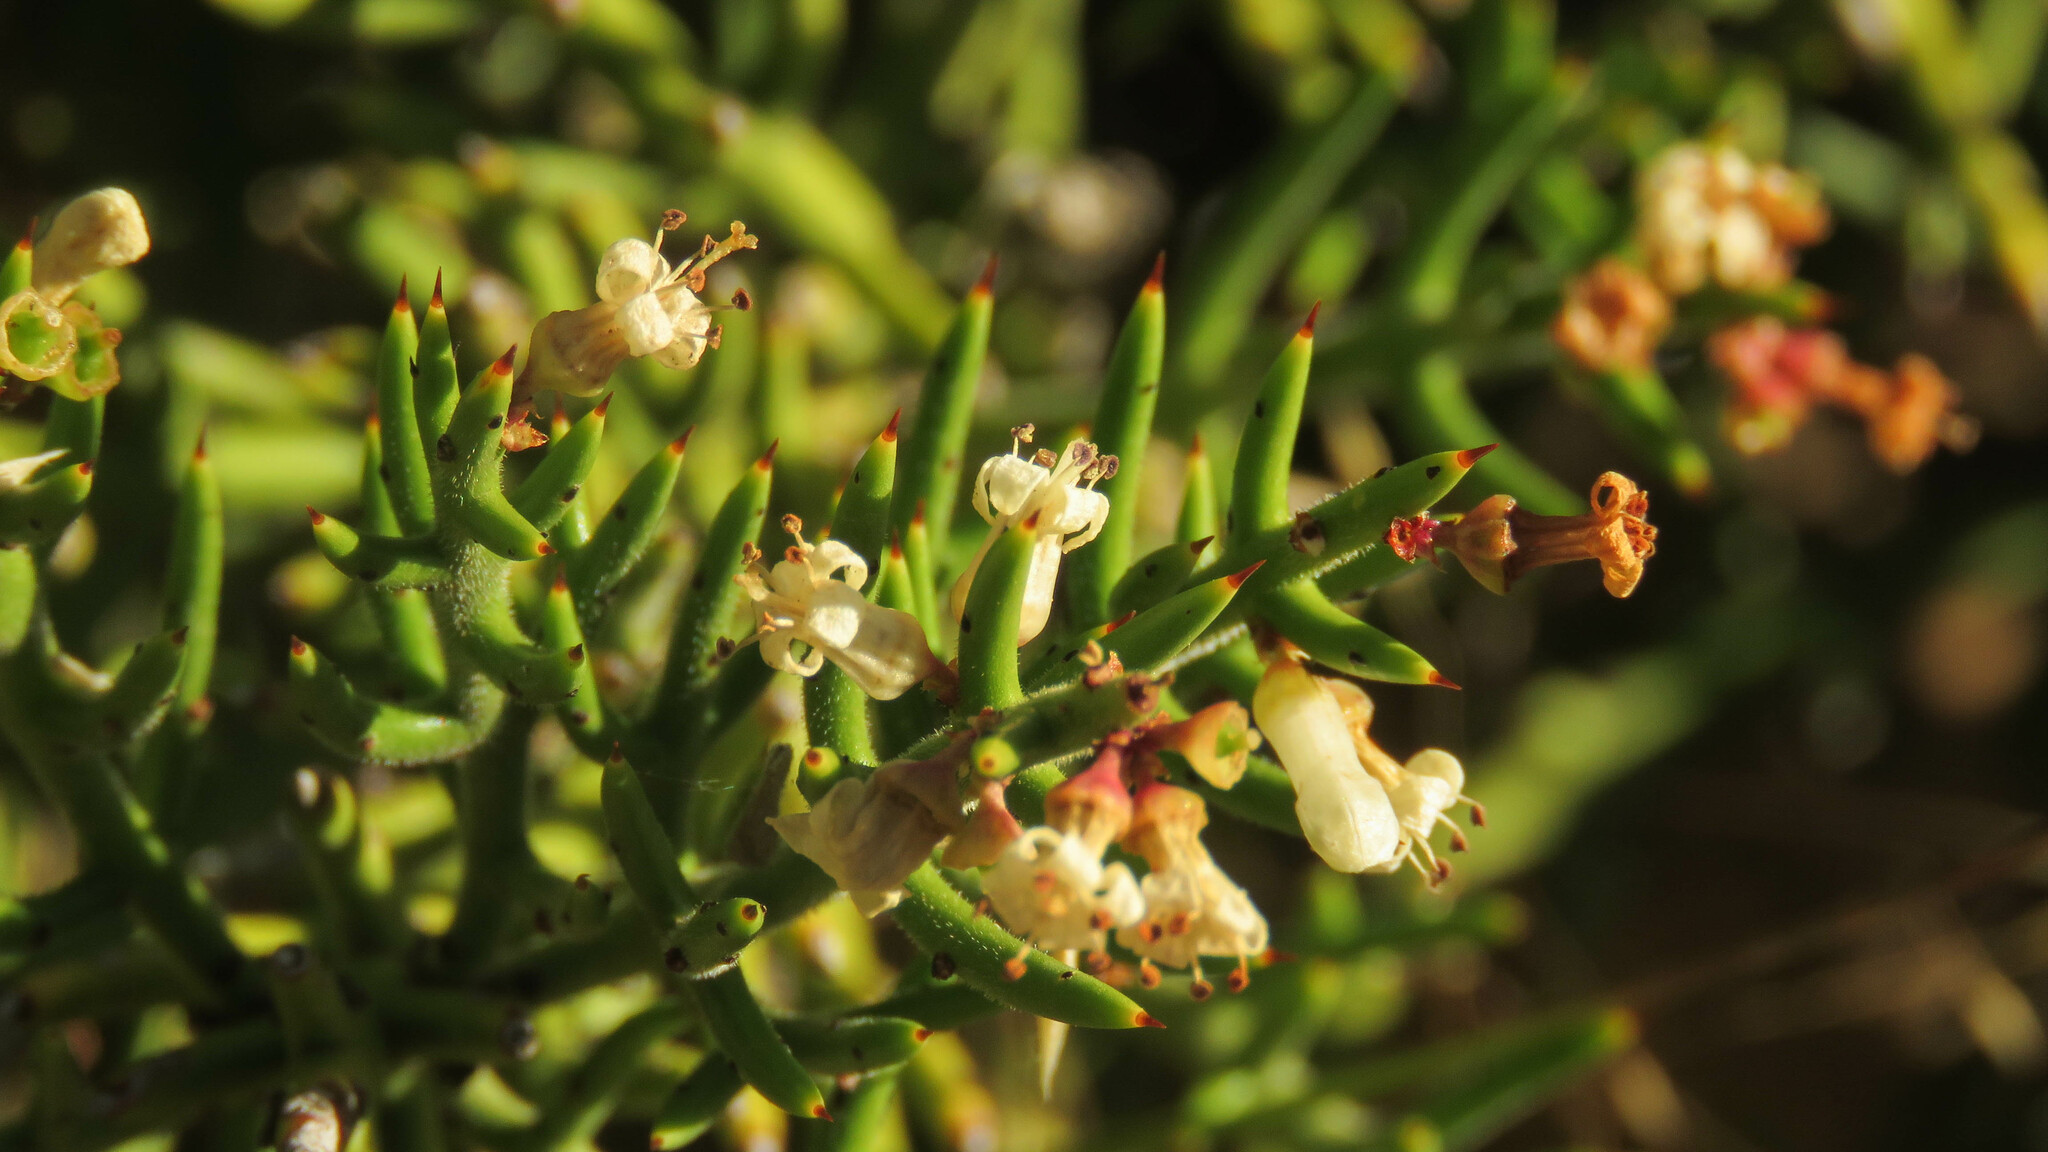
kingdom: Plantae
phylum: Tracheophyta
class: Magnoliopsida
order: Rosales
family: Rhamnaceae
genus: Discaria
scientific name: Discaria chacaye
